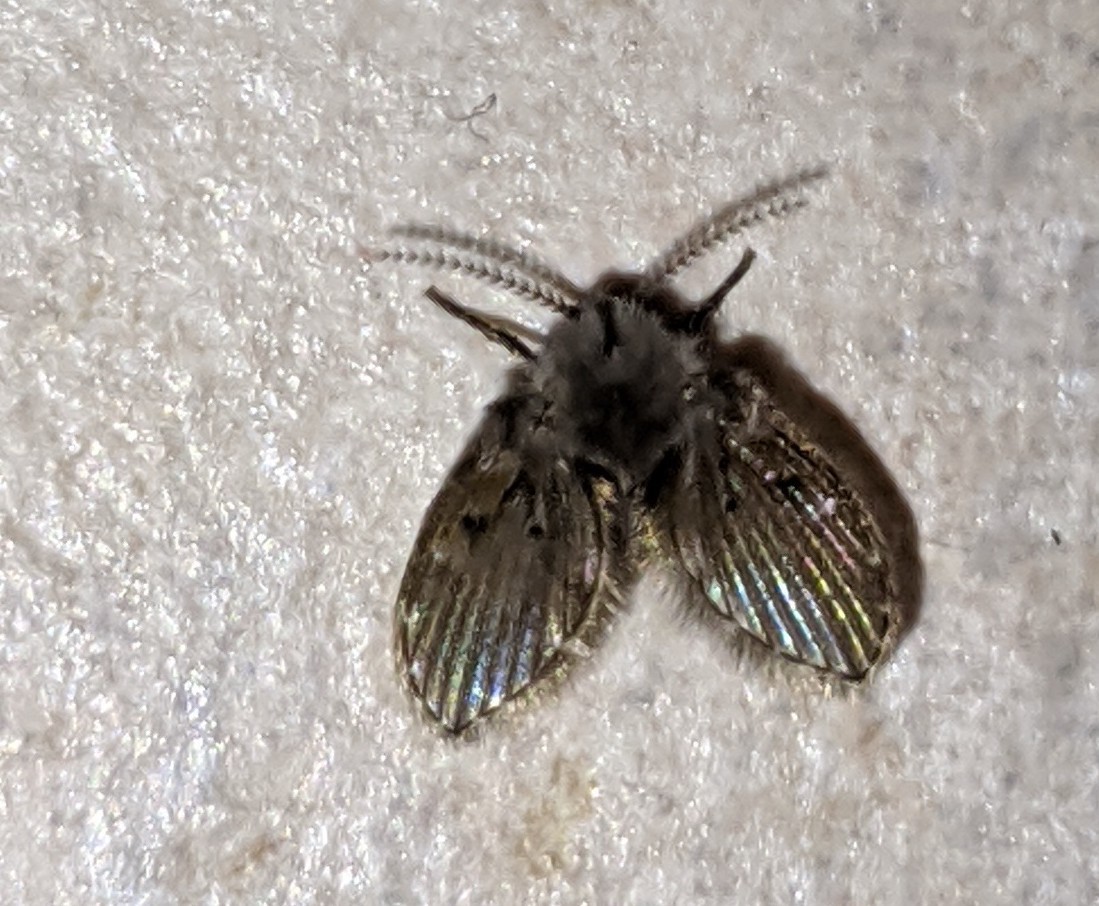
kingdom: Animalia
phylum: Arthropoda
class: Insecta
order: Diptera
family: Psychodidae
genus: Clogmia
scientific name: Clogmia albipunctatus
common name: White-spotted moth fly
